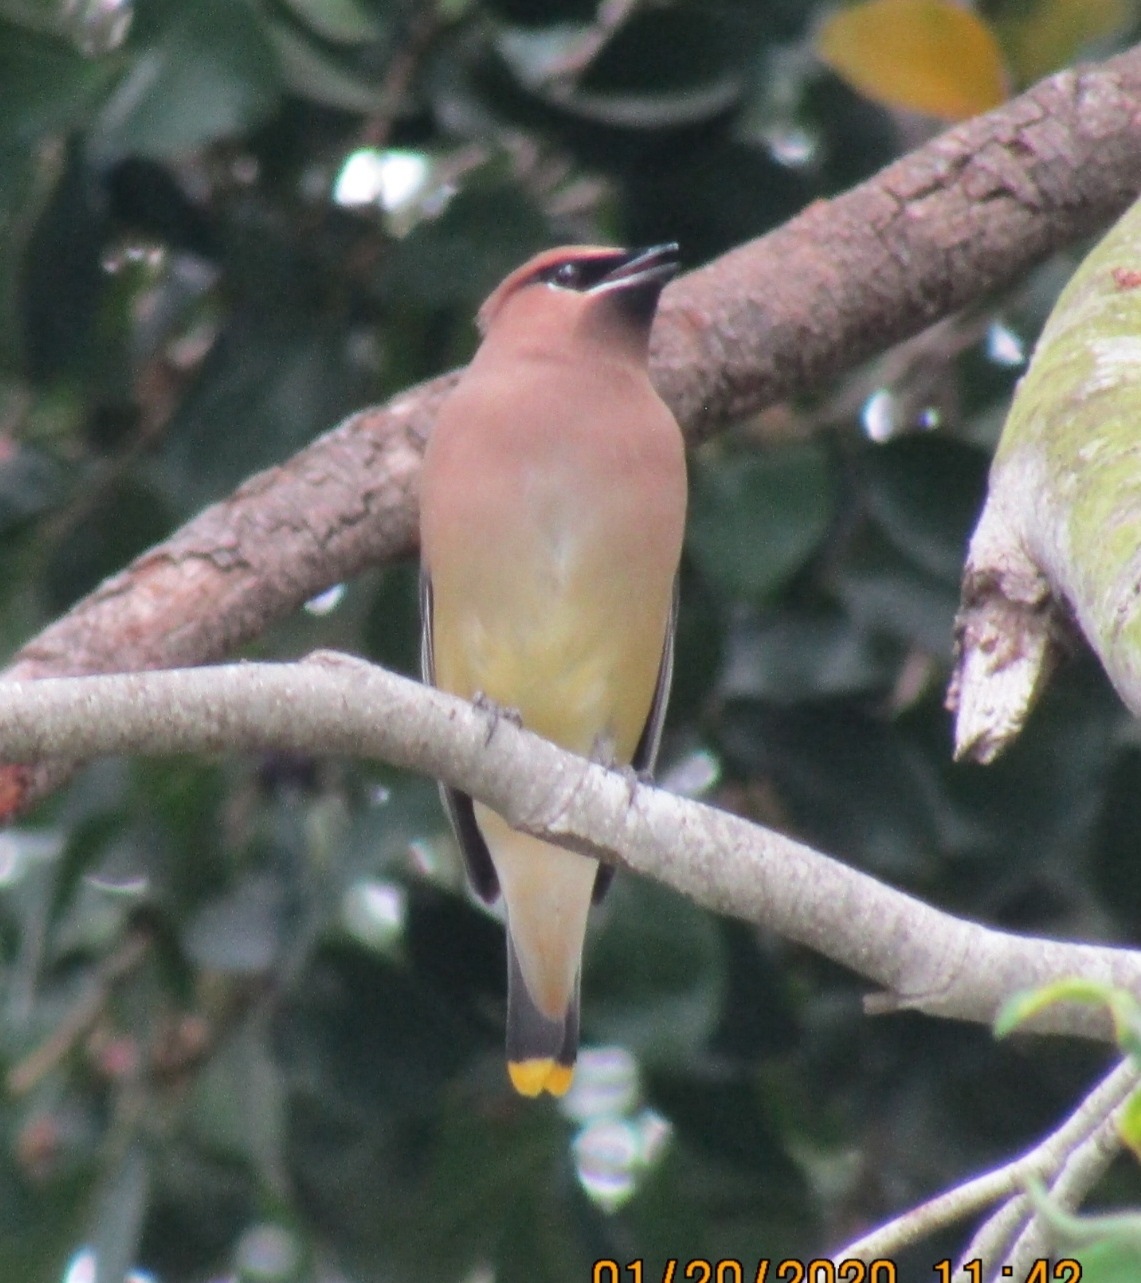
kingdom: Animalia
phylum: Chordata
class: Aves
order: Passeriformes
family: Bombycillidae
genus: Bombycilla
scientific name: Bombycilla cedrorum
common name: Cedar waxwing
